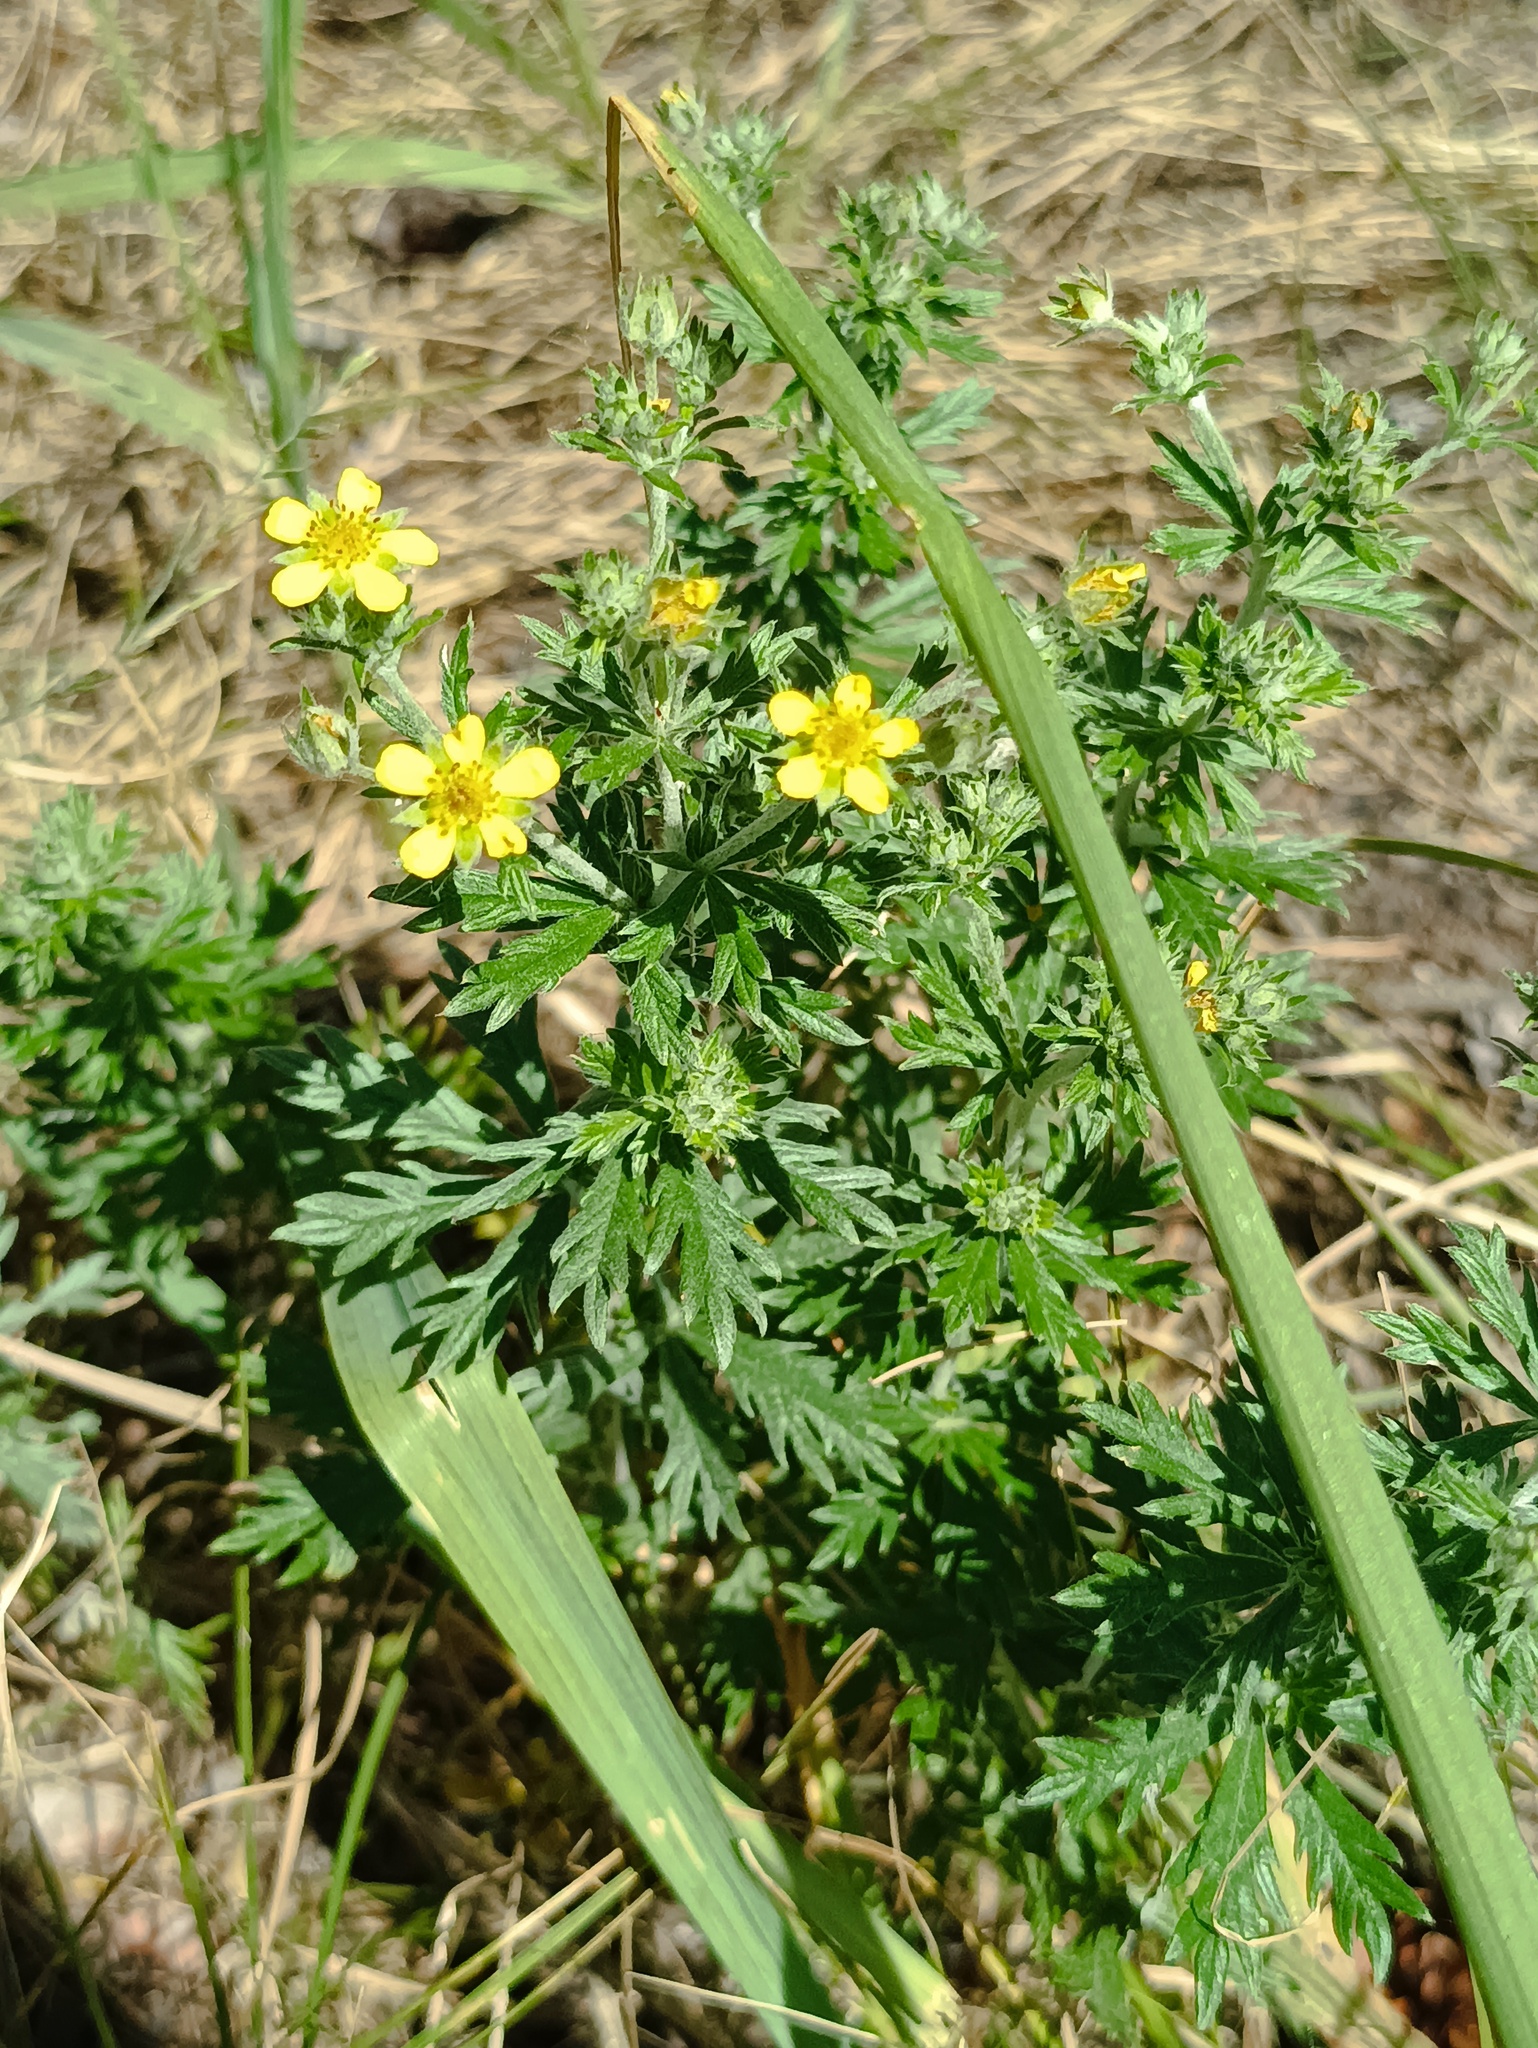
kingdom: Plantae
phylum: Tracheophyta
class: Magnoliopsida
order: Rosales
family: Rosaceae
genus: Potentilla
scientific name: Potentilla argentea
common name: Hoary cinquefoil
